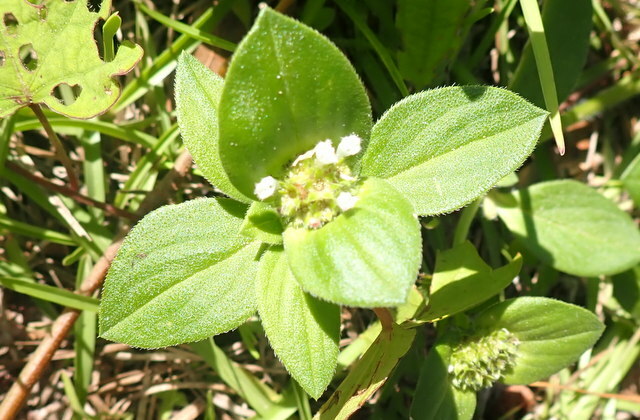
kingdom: Plantae
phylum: Tracheophyta
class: Magnoliopsida
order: Gentianales
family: Rubiaceae
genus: Richardia
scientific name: Richardia scabra
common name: Rough mexican clover
